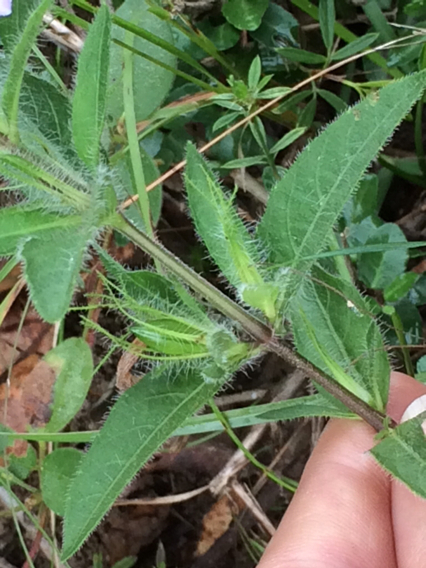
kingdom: Plantae
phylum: Tracheophyta
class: Magnoliopsida
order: Lamiales
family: Acanthaceae
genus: Ruellia
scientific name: Ruellia humilis
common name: Fringe-leaf ruellia
